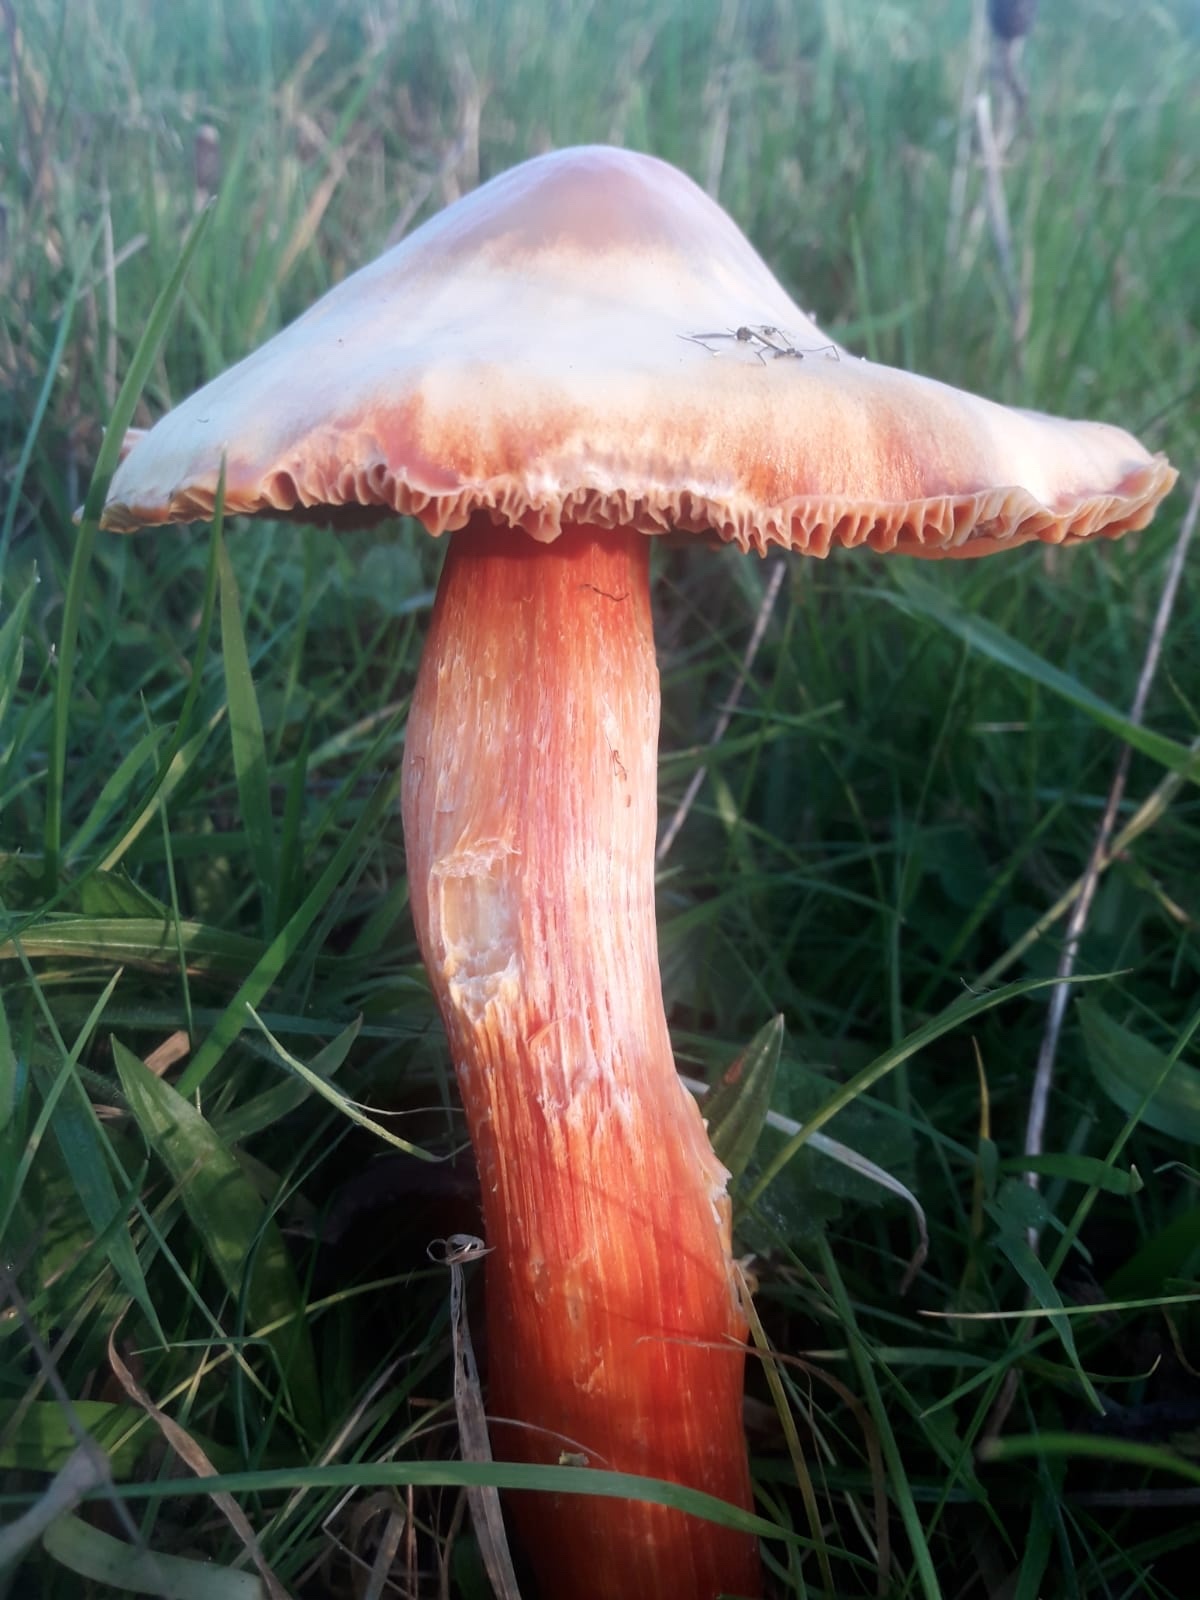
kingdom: Fungi
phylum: Basidiomycota
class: Agaricomycetes
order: Agaricales
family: Hygrophoraceae
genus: Hygrocybe
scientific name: Hygrocybe punicea
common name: Crimson waxcap
